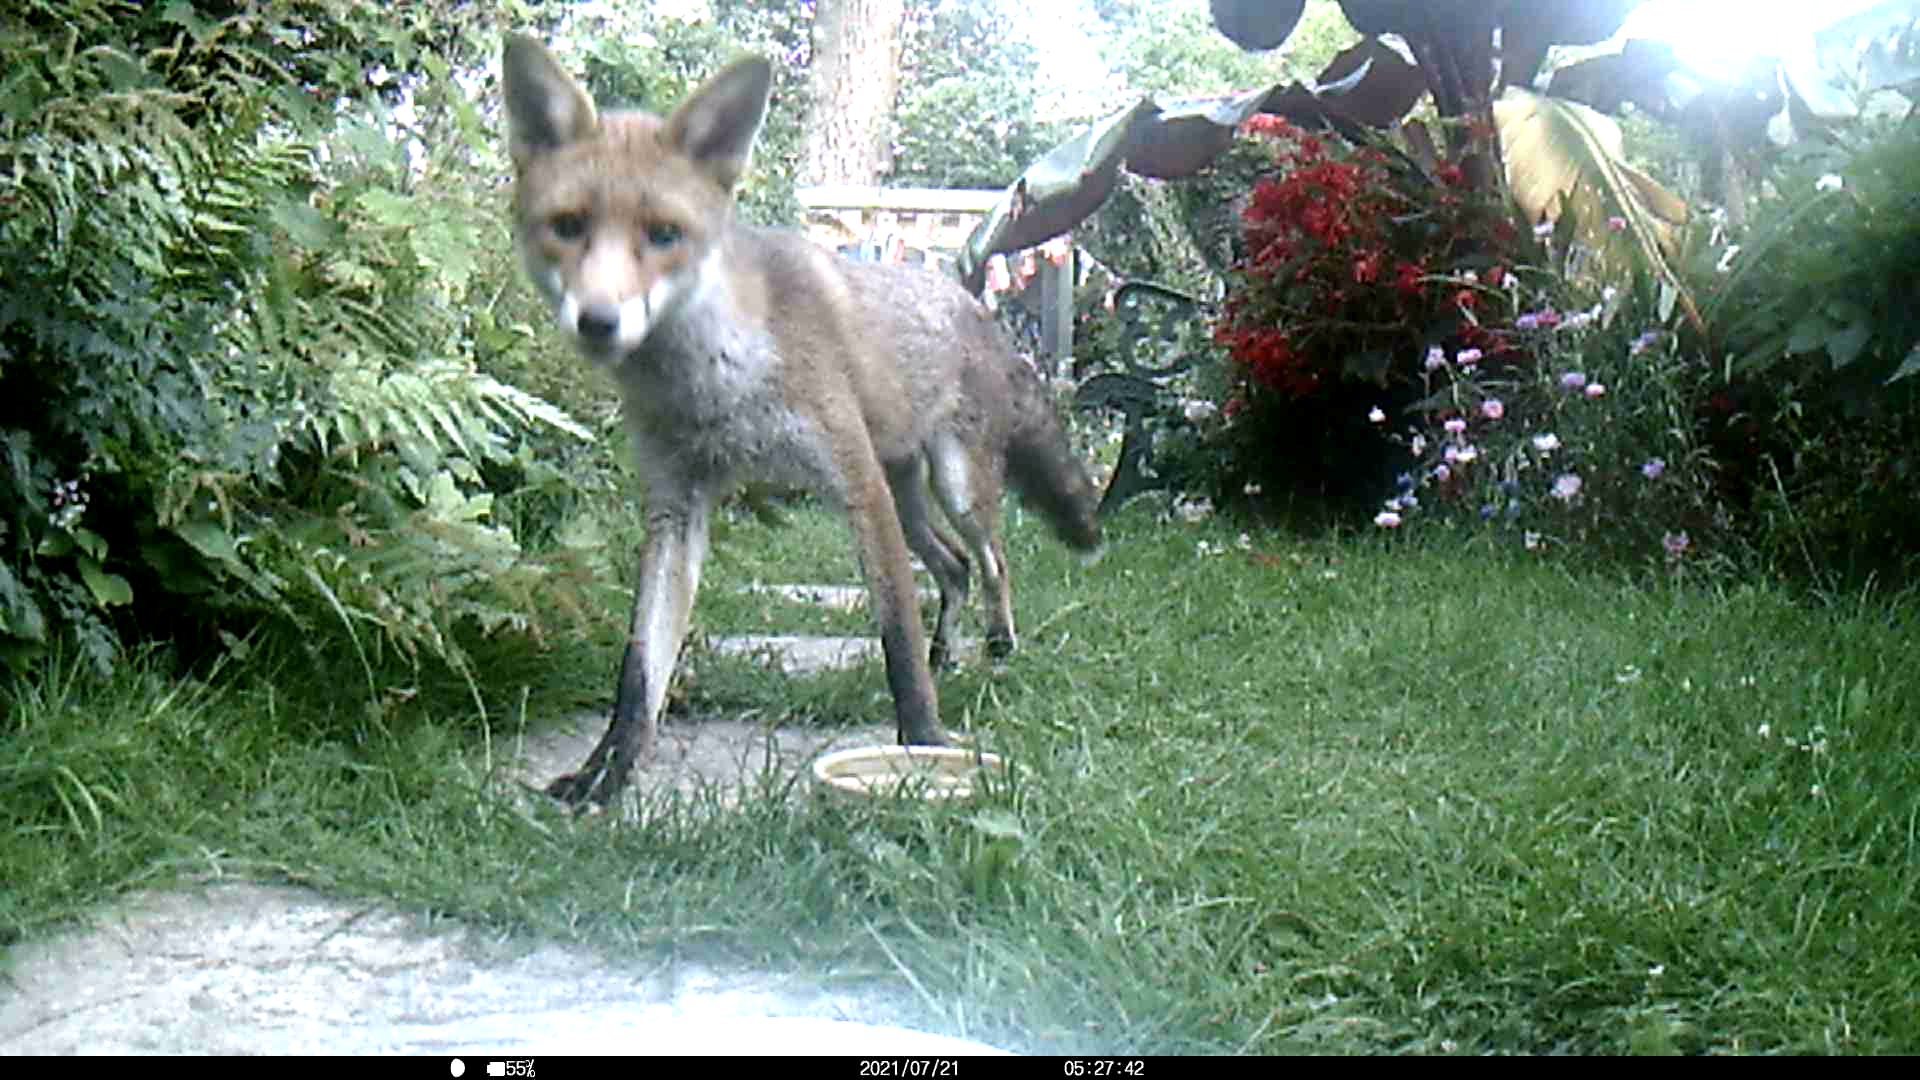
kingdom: Animalia
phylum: Chordata
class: Mammalia
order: Carnivora
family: Canidae
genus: Vulpes
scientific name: Vulpes vulpes
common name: Red fox
